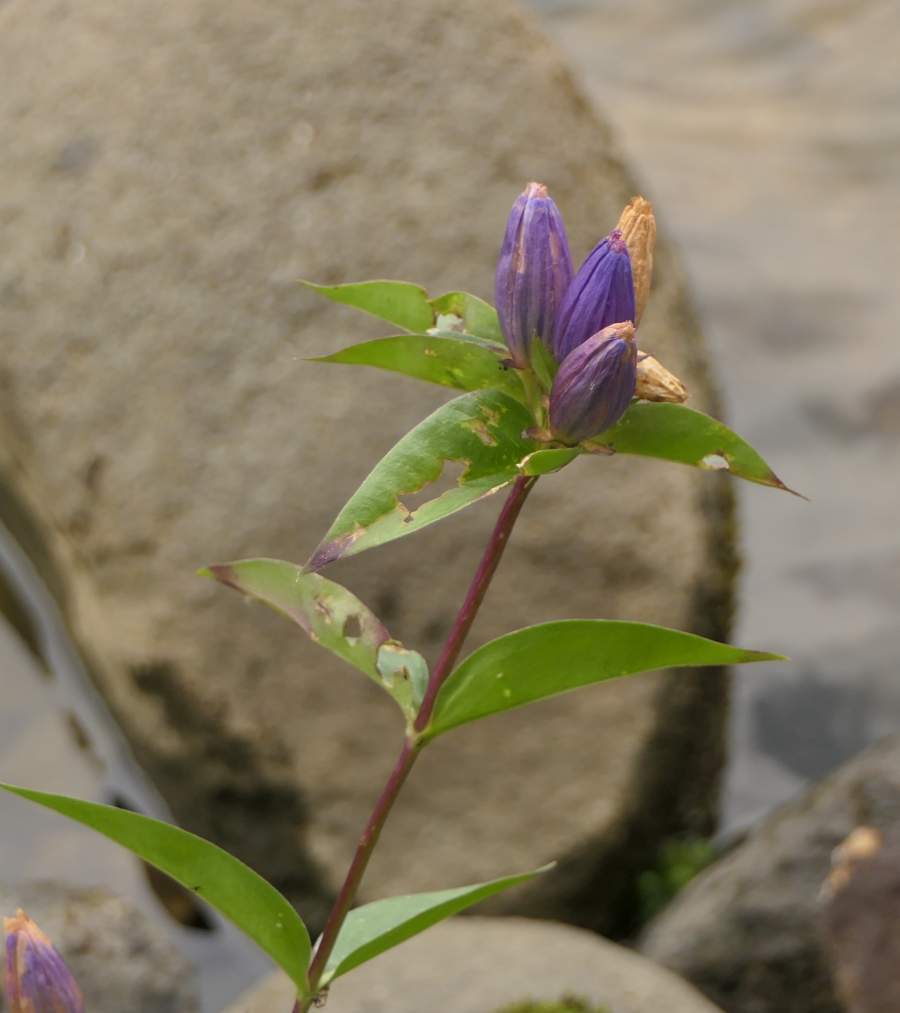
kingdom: Plantae
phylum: Tracheophyta
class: Magnoliopsida
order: Gentianales
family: Gentianaceae
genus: Gentiana
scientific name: Gentiana andrewsii
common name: Bottle gentian
